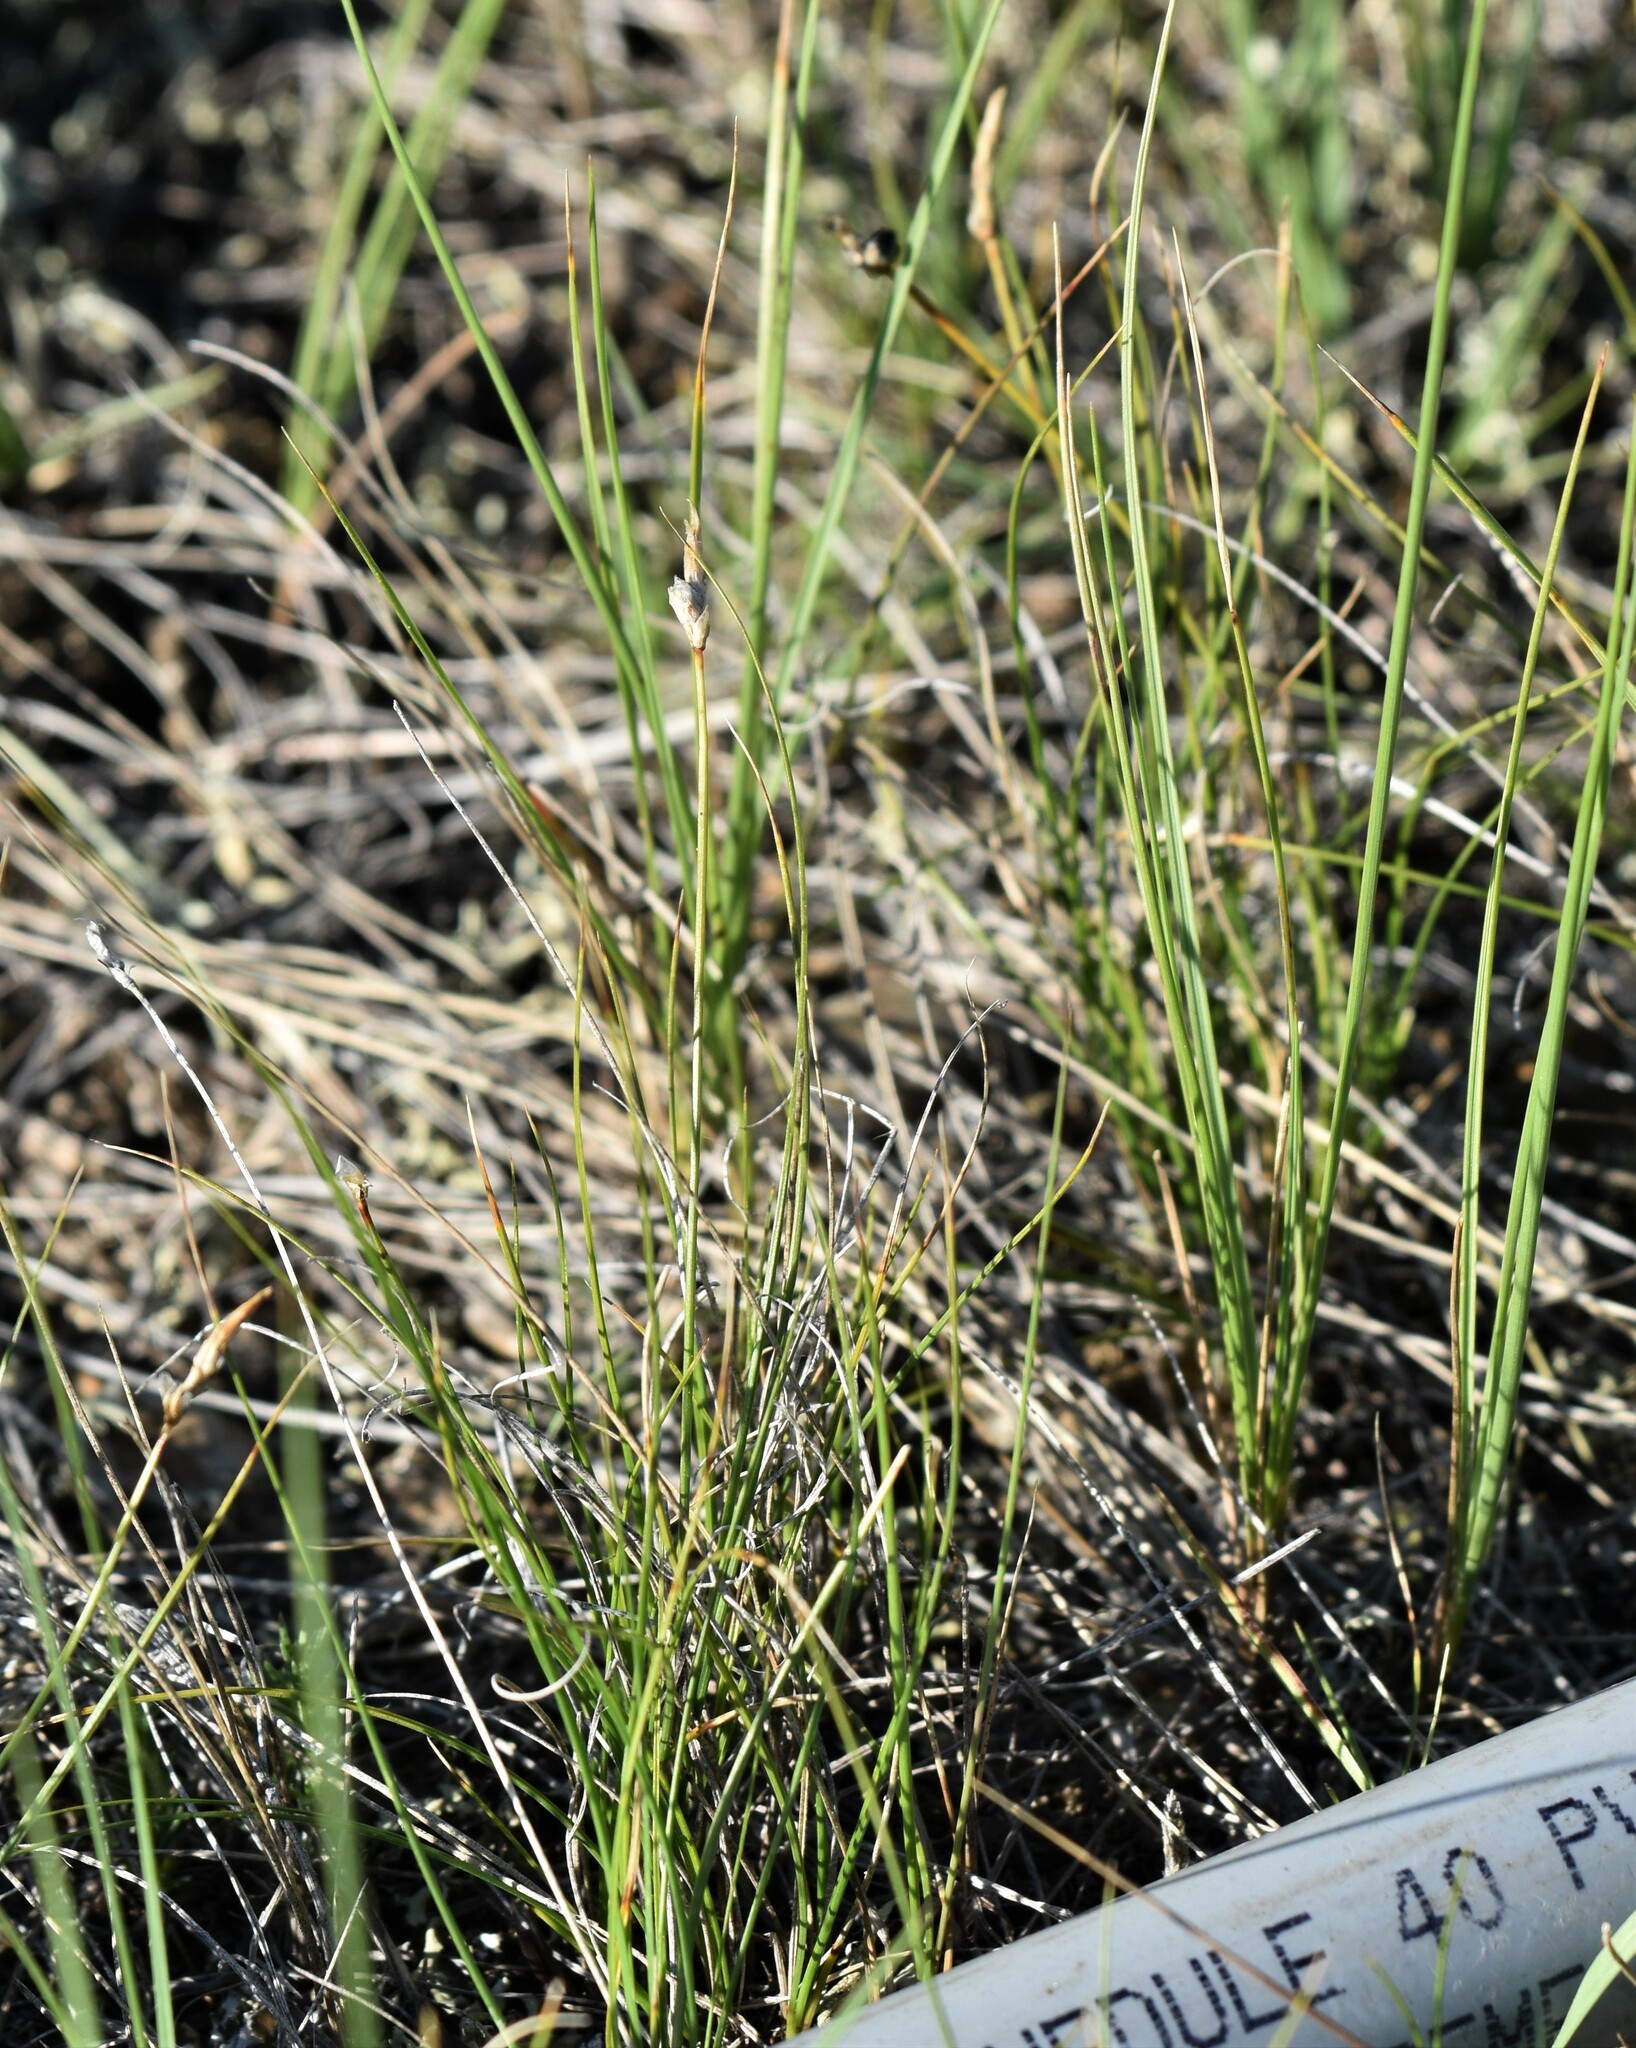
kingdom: Plantae
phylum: Tracheophyta
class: Liliopsida
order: Poales
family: Cyperaceae
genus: Carex
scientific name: Carex filifolia
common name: Threadleaf sedge
